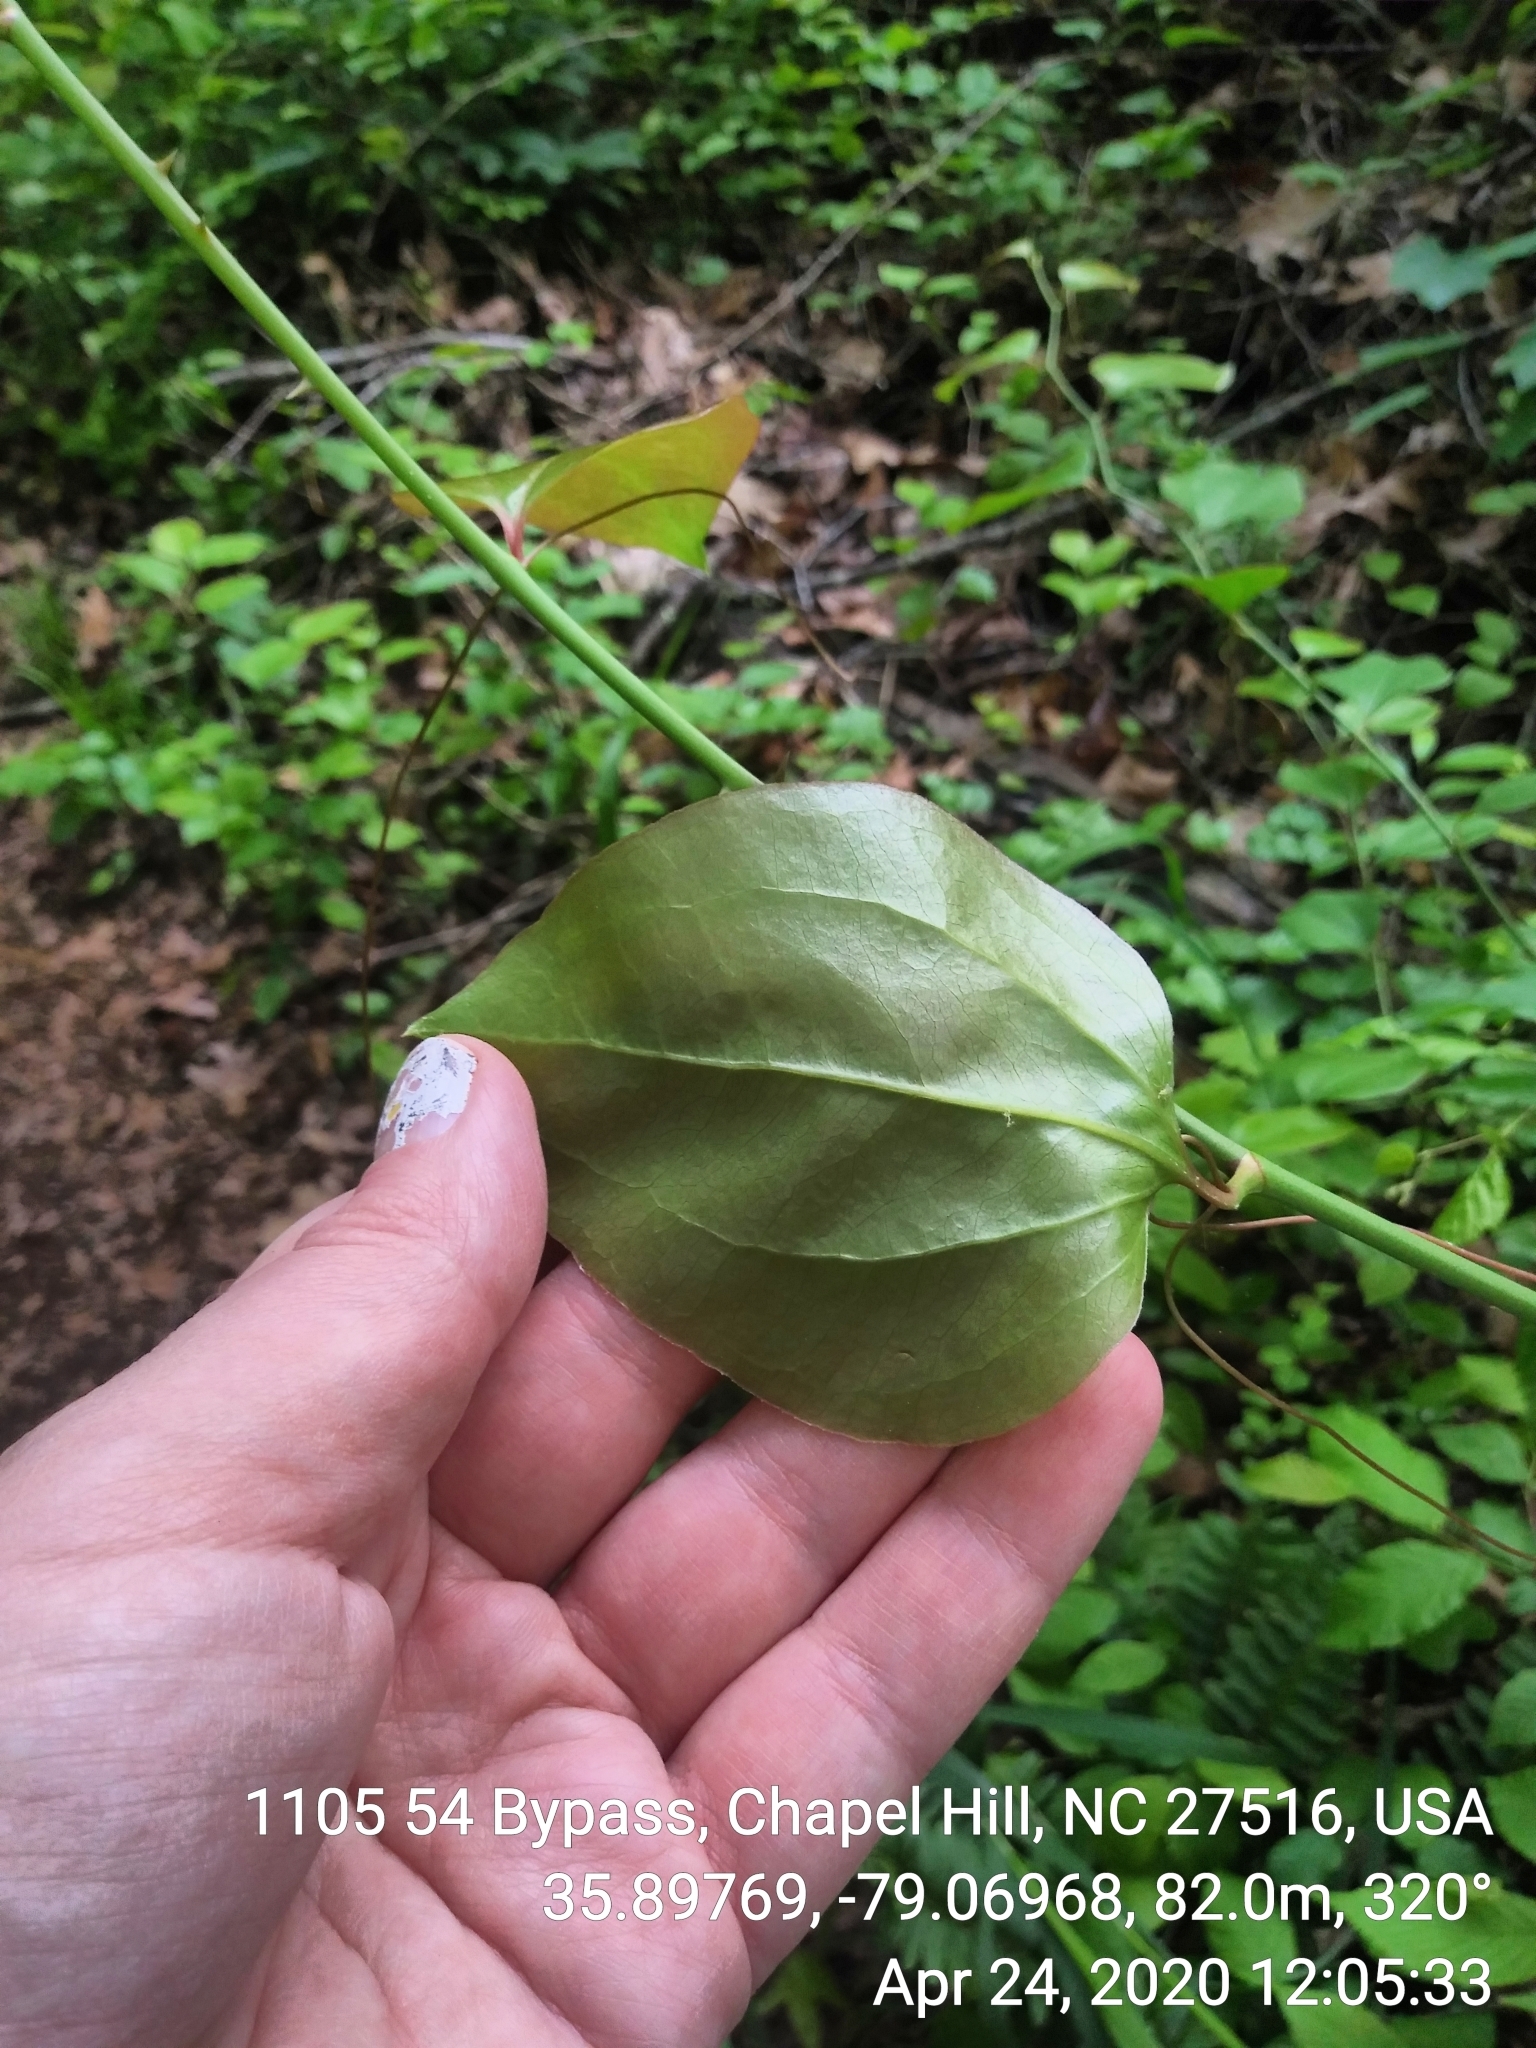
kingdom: Plantae
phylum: Tracheophyta
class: Liliopsida
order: Liliales
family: Smilacaceae
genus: Smilax
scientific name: Smilax rotundifolia
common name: Bullbriar
